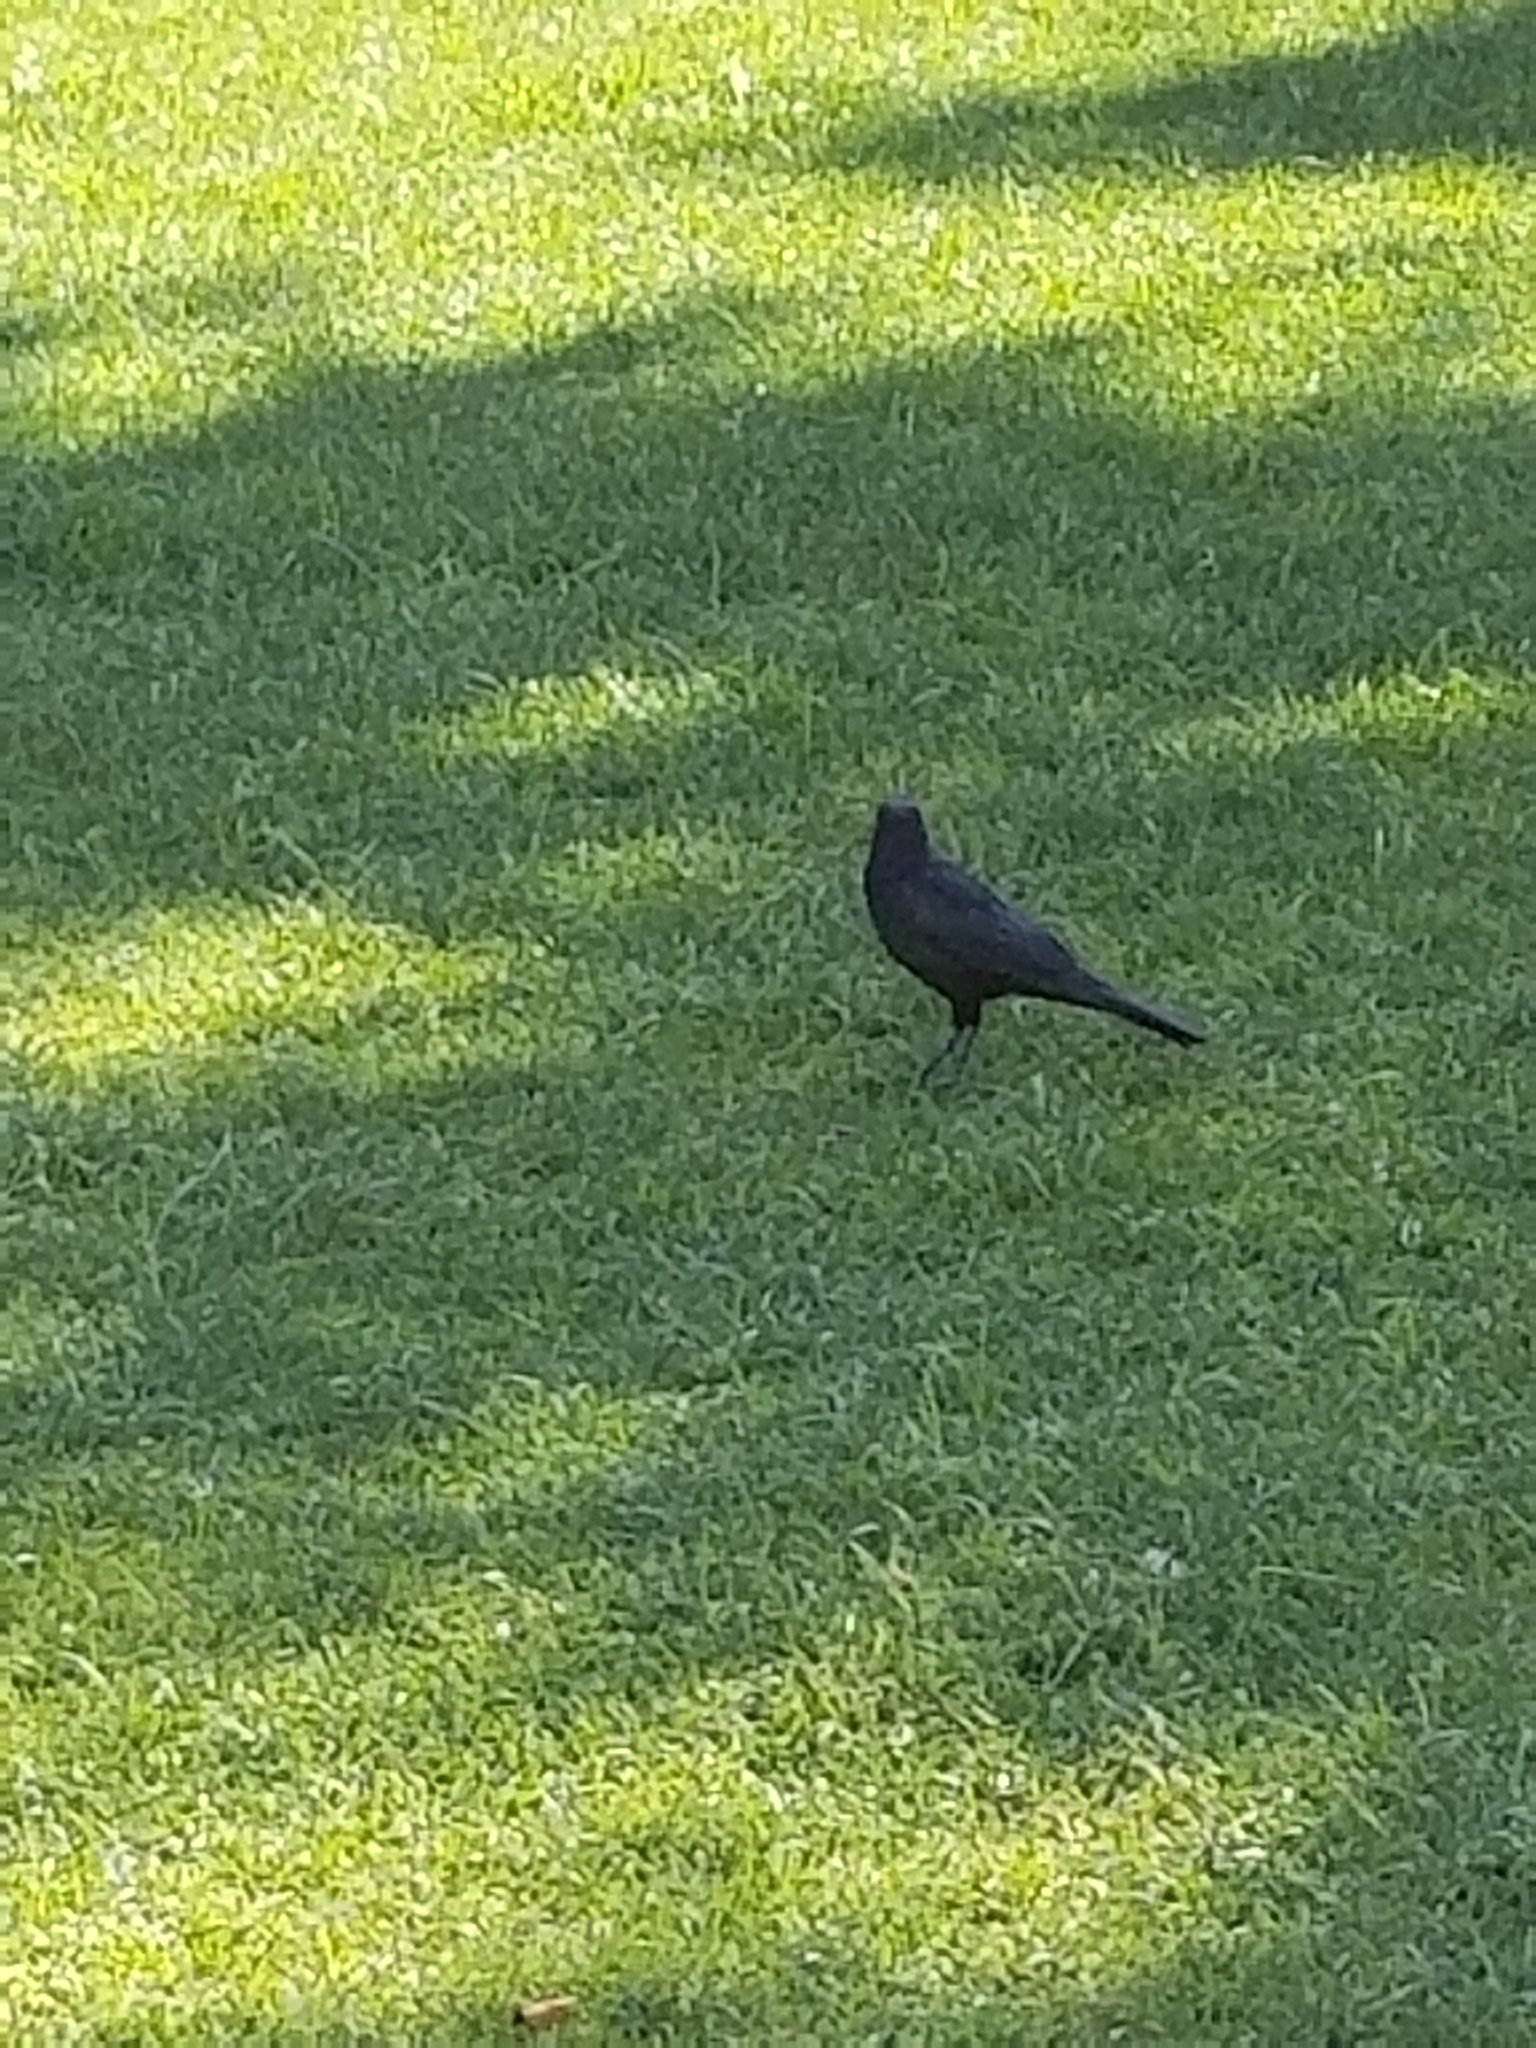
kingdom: Animalia
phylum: Chordata
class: Aves
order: Passeriformes
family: Icteridae
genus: Euphagus
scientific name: Euphagus cyanocephalus
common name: Brewer's blackbird
